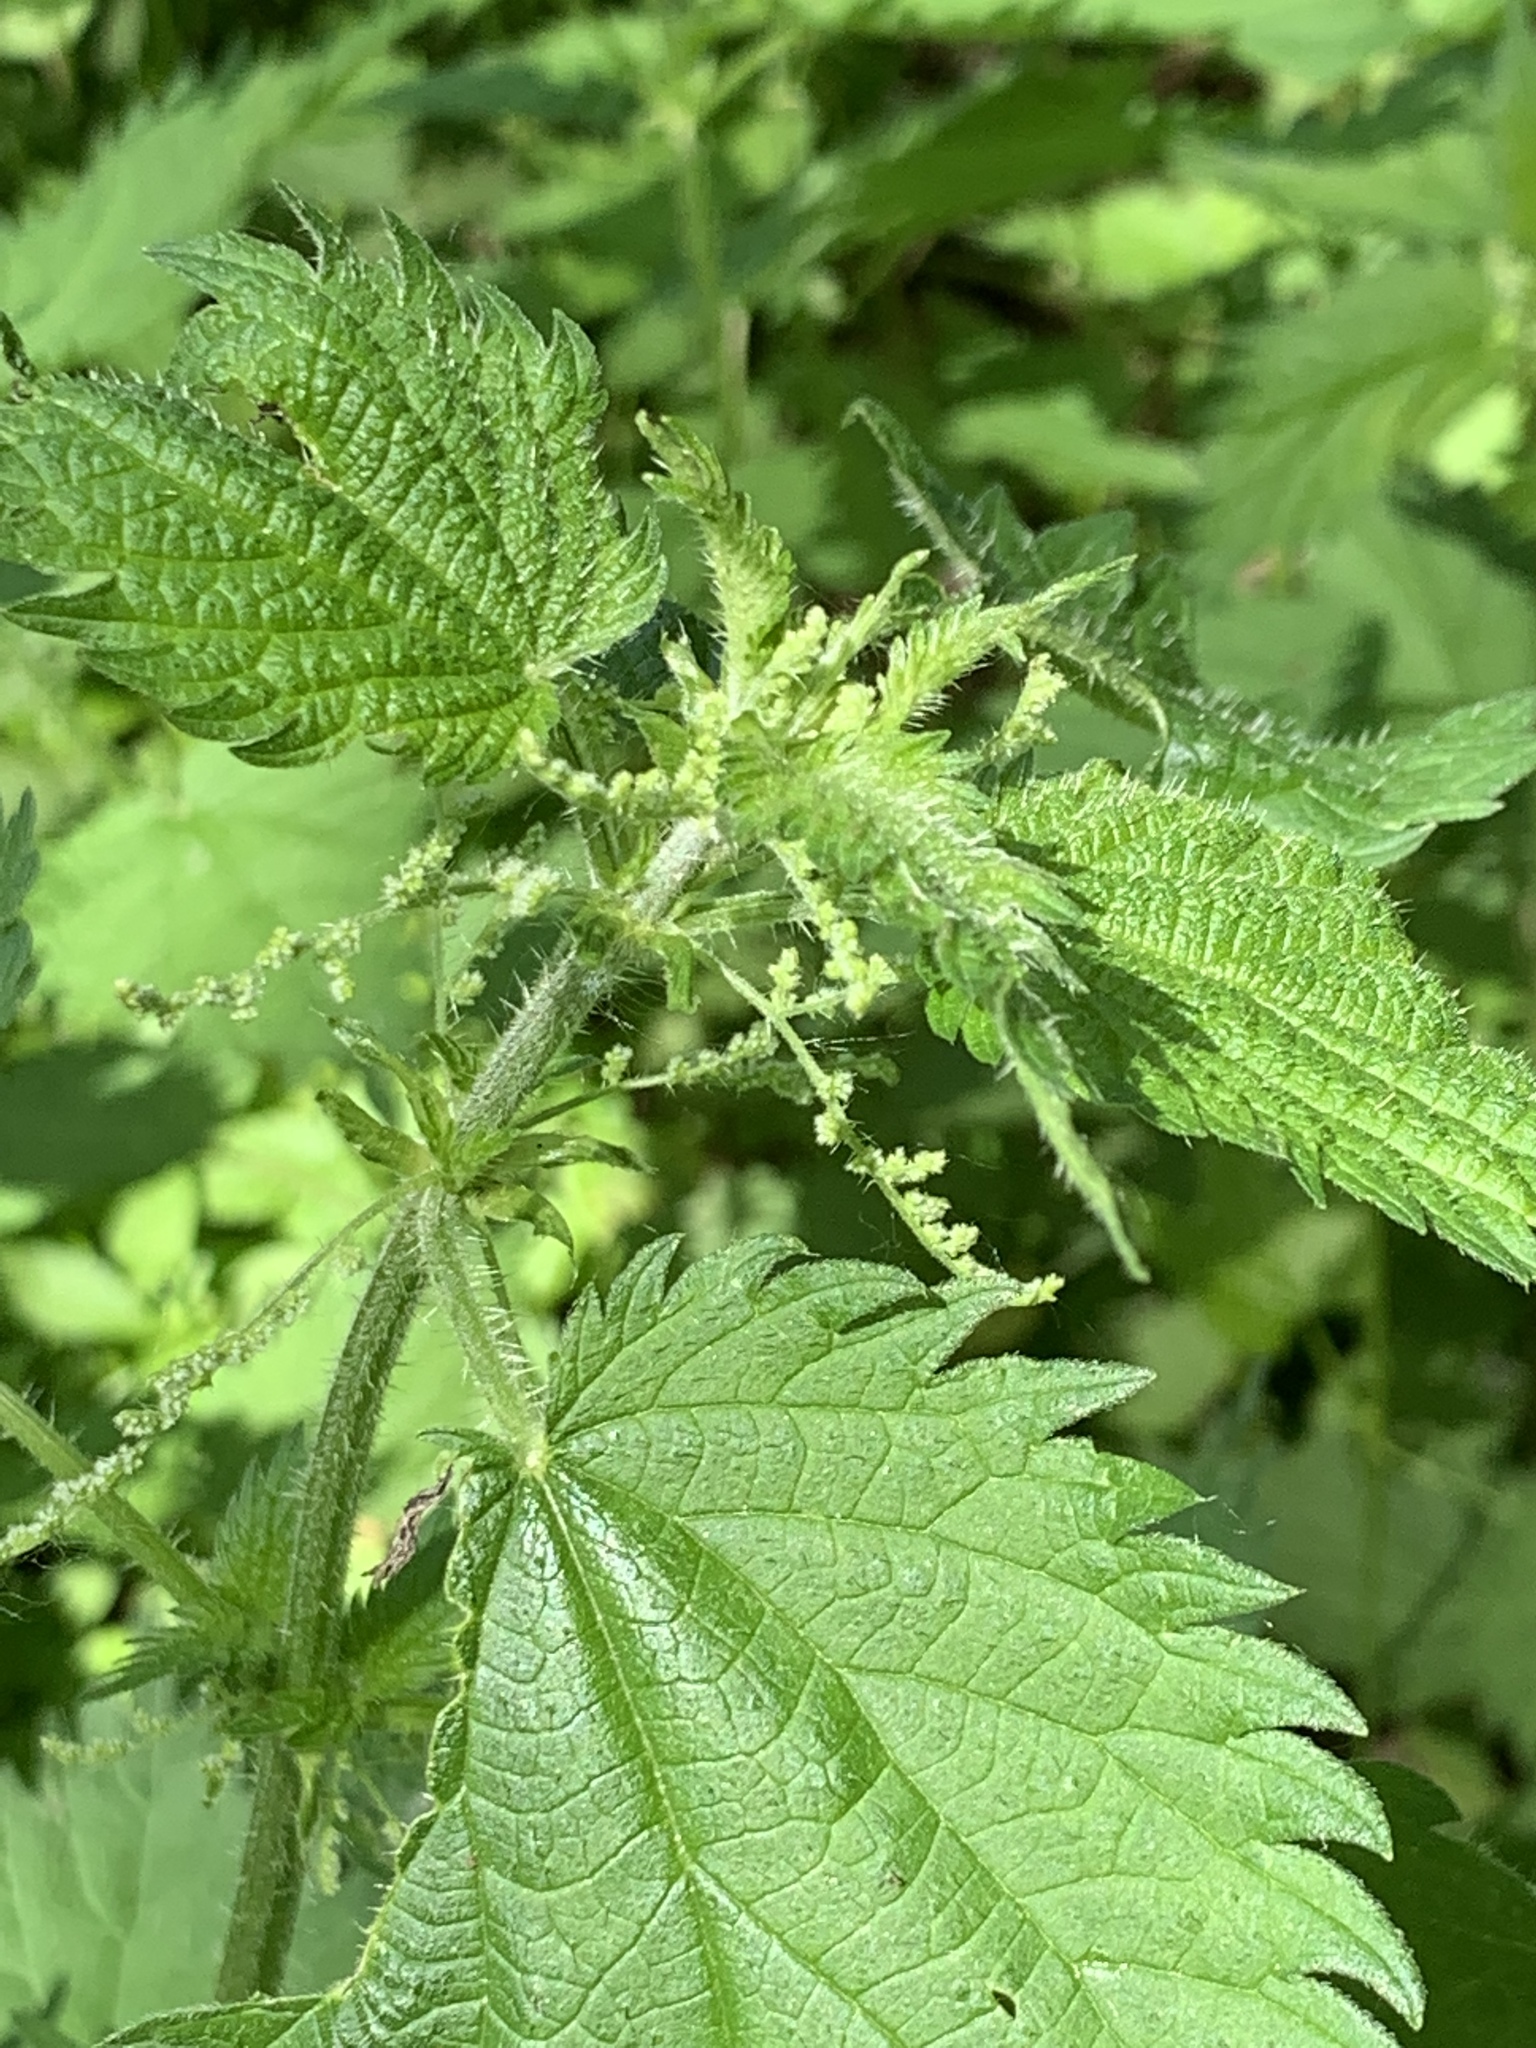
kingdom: Plantae
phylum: Tracheophyta
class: Magnoliopsida
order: Rosales
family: Urticaceae
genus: Urtica
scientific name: Urtica dioica
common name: Common nettle
